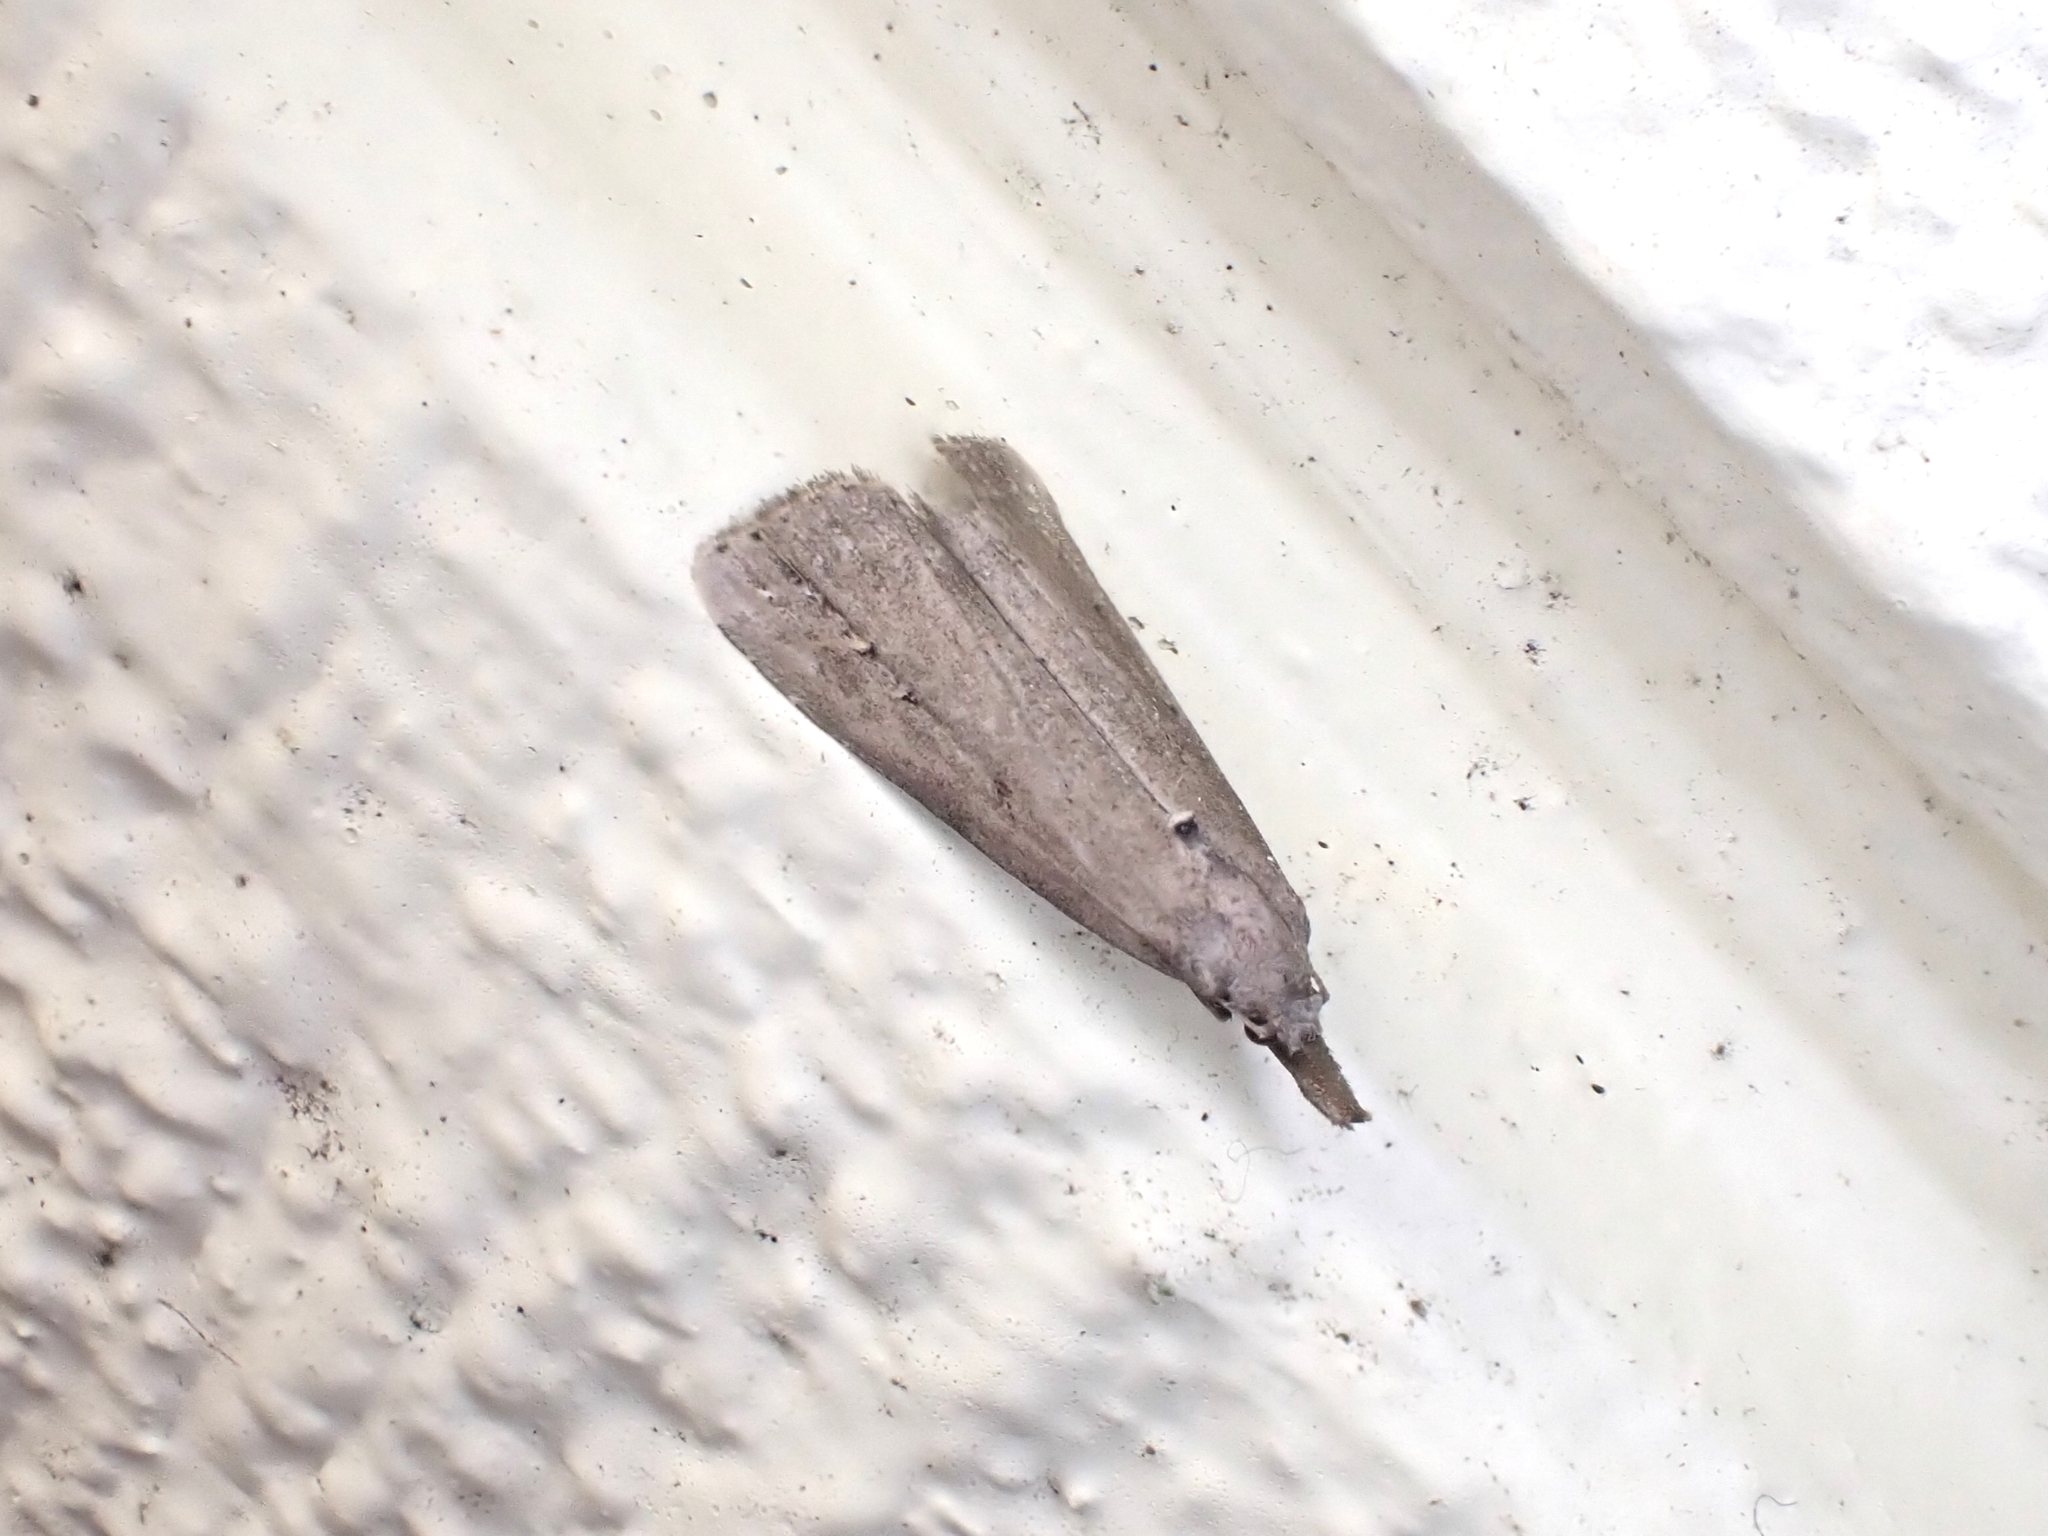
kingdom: Animalia
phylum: Arthropoda
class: Insecta
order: Lepidoptera
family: Erebidae
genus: Schrankia
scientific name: Schrankia costaestrigalis
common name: Pinion-streaked snout
